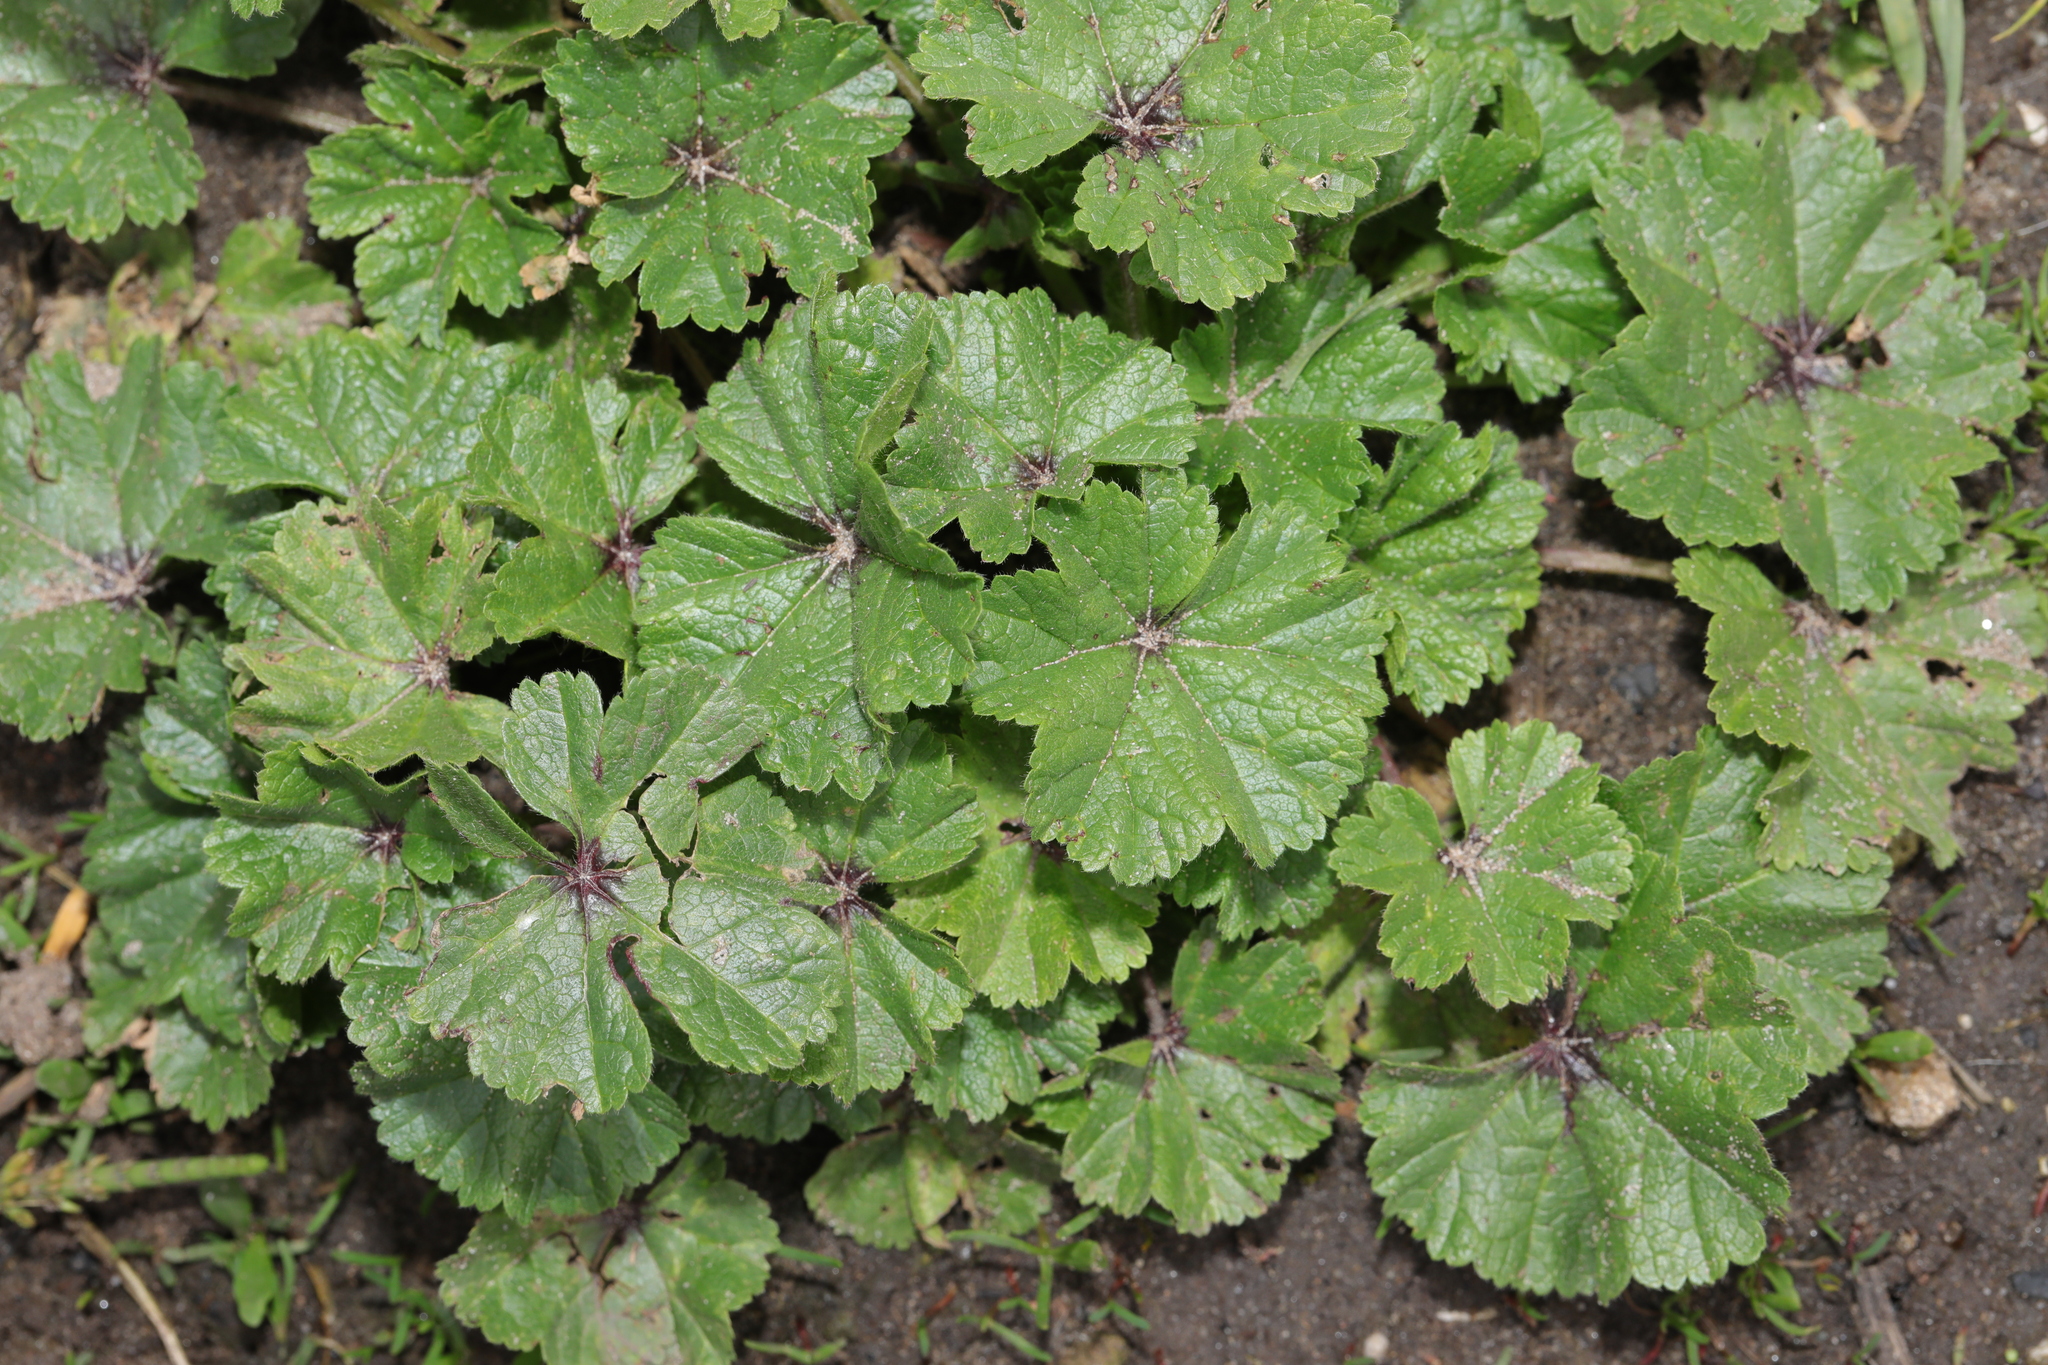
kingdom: Plantae
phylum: Tracheophyta
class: Magnoliopsida
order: Malvales
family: Malvaceae
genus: Malva
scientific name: Malva sylvestris
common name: Common mallow
